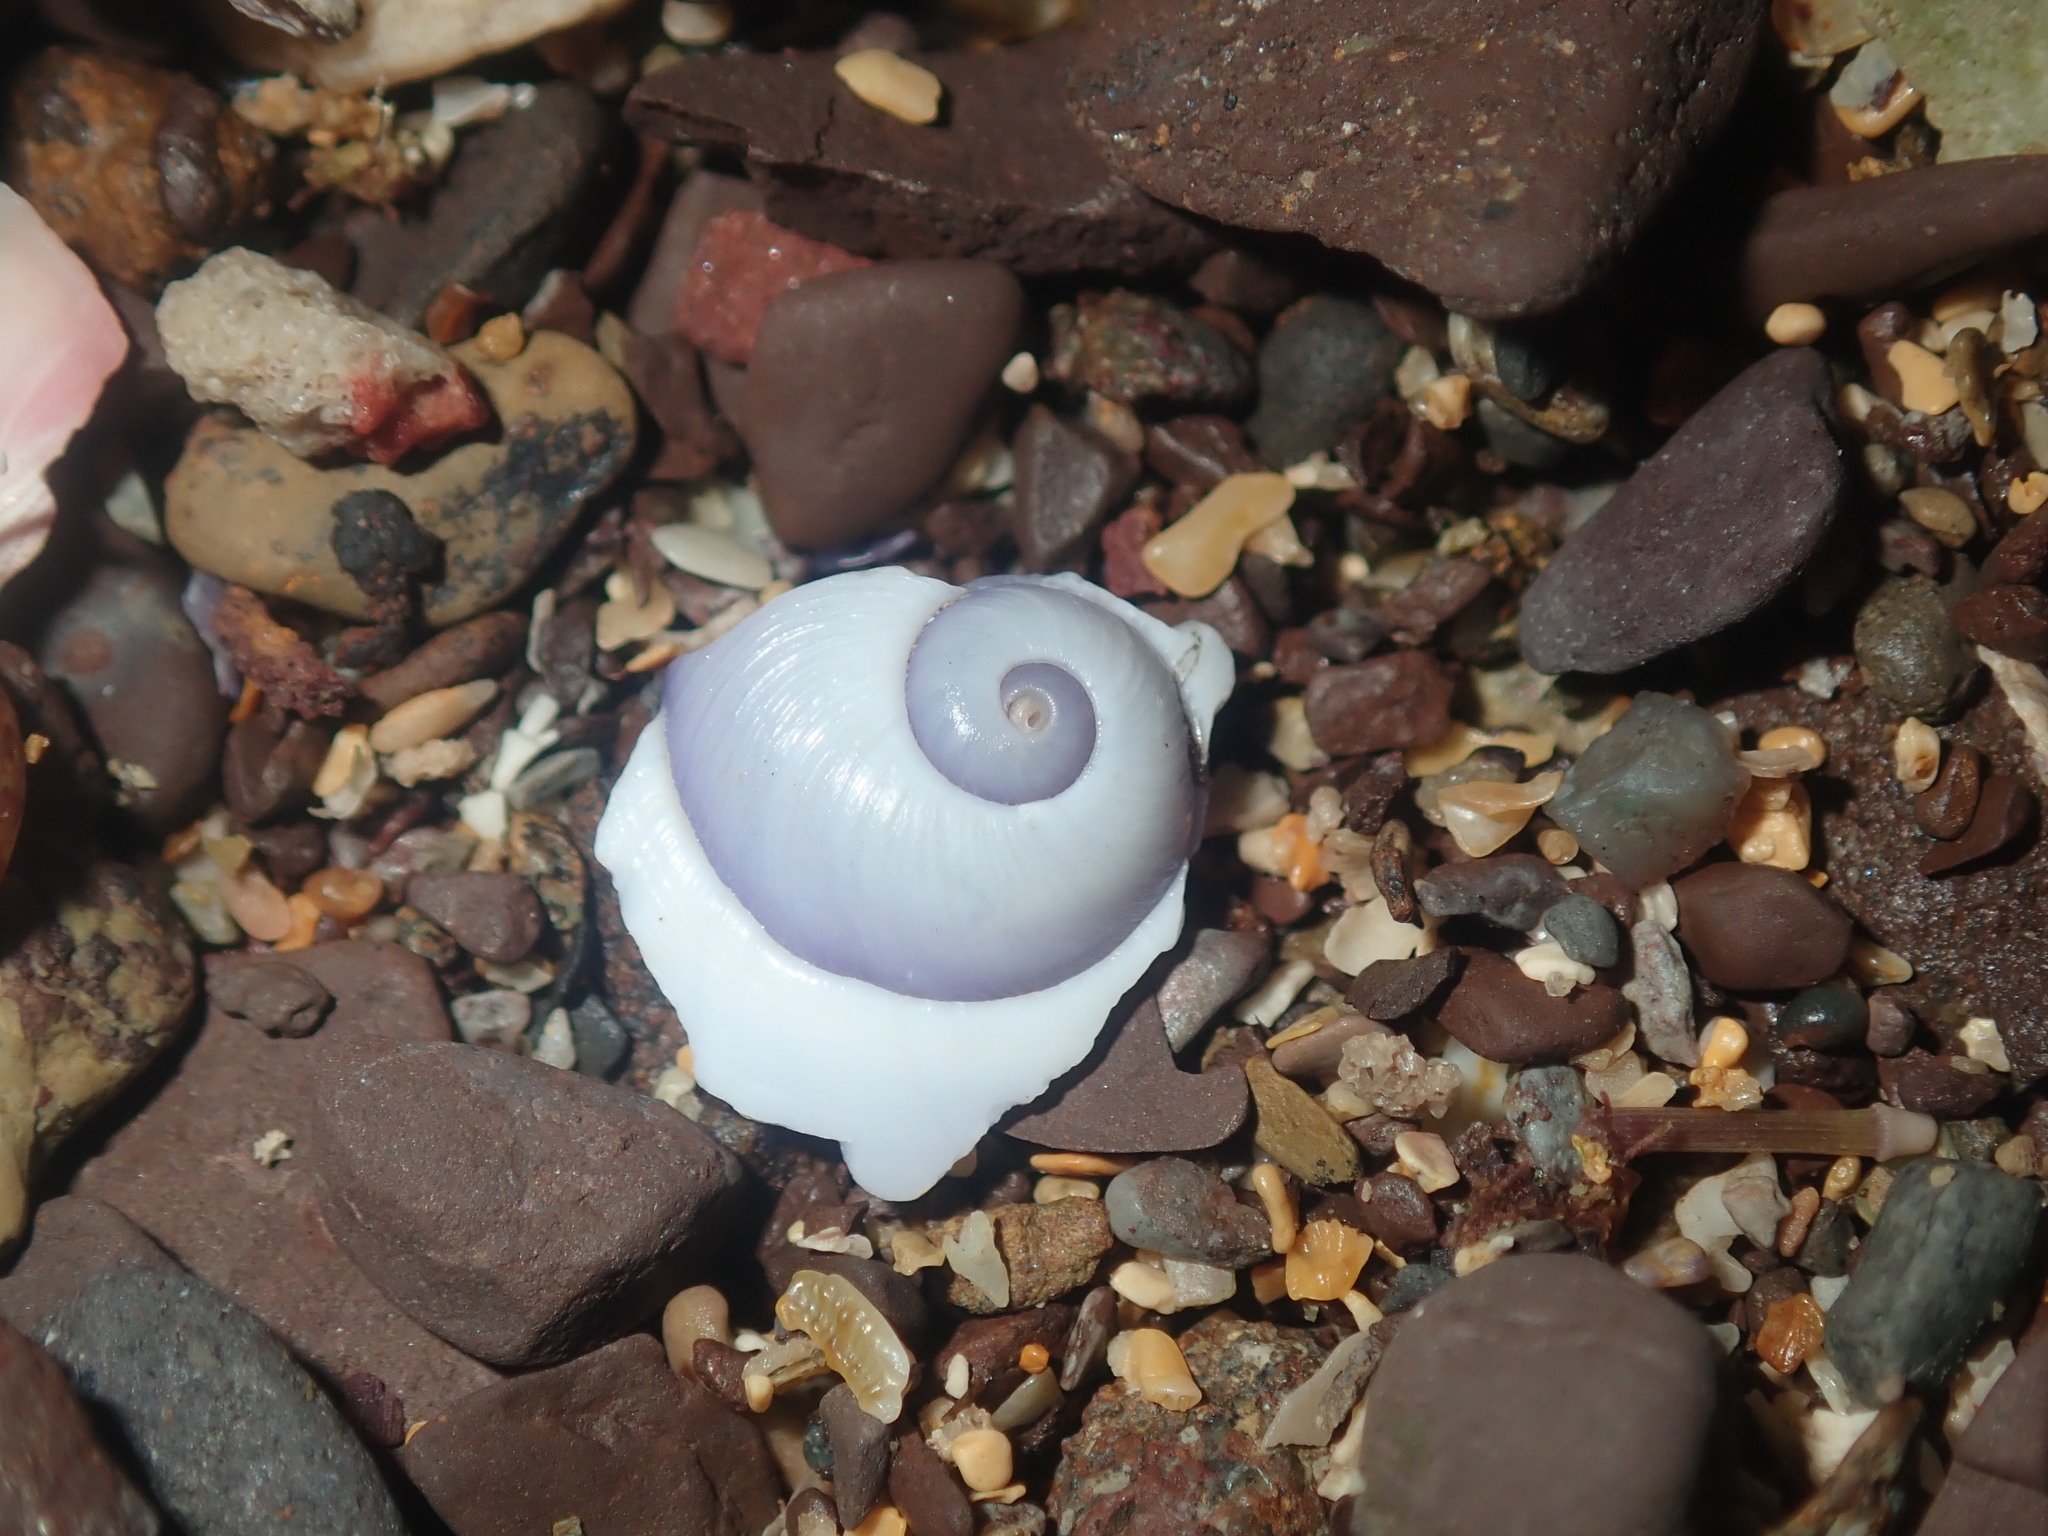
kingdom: Animalia
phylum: Mollusca
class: Gastropoda
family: Epitoniidae
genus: Janthina
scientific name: Janthina janthina
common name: Common janthina
